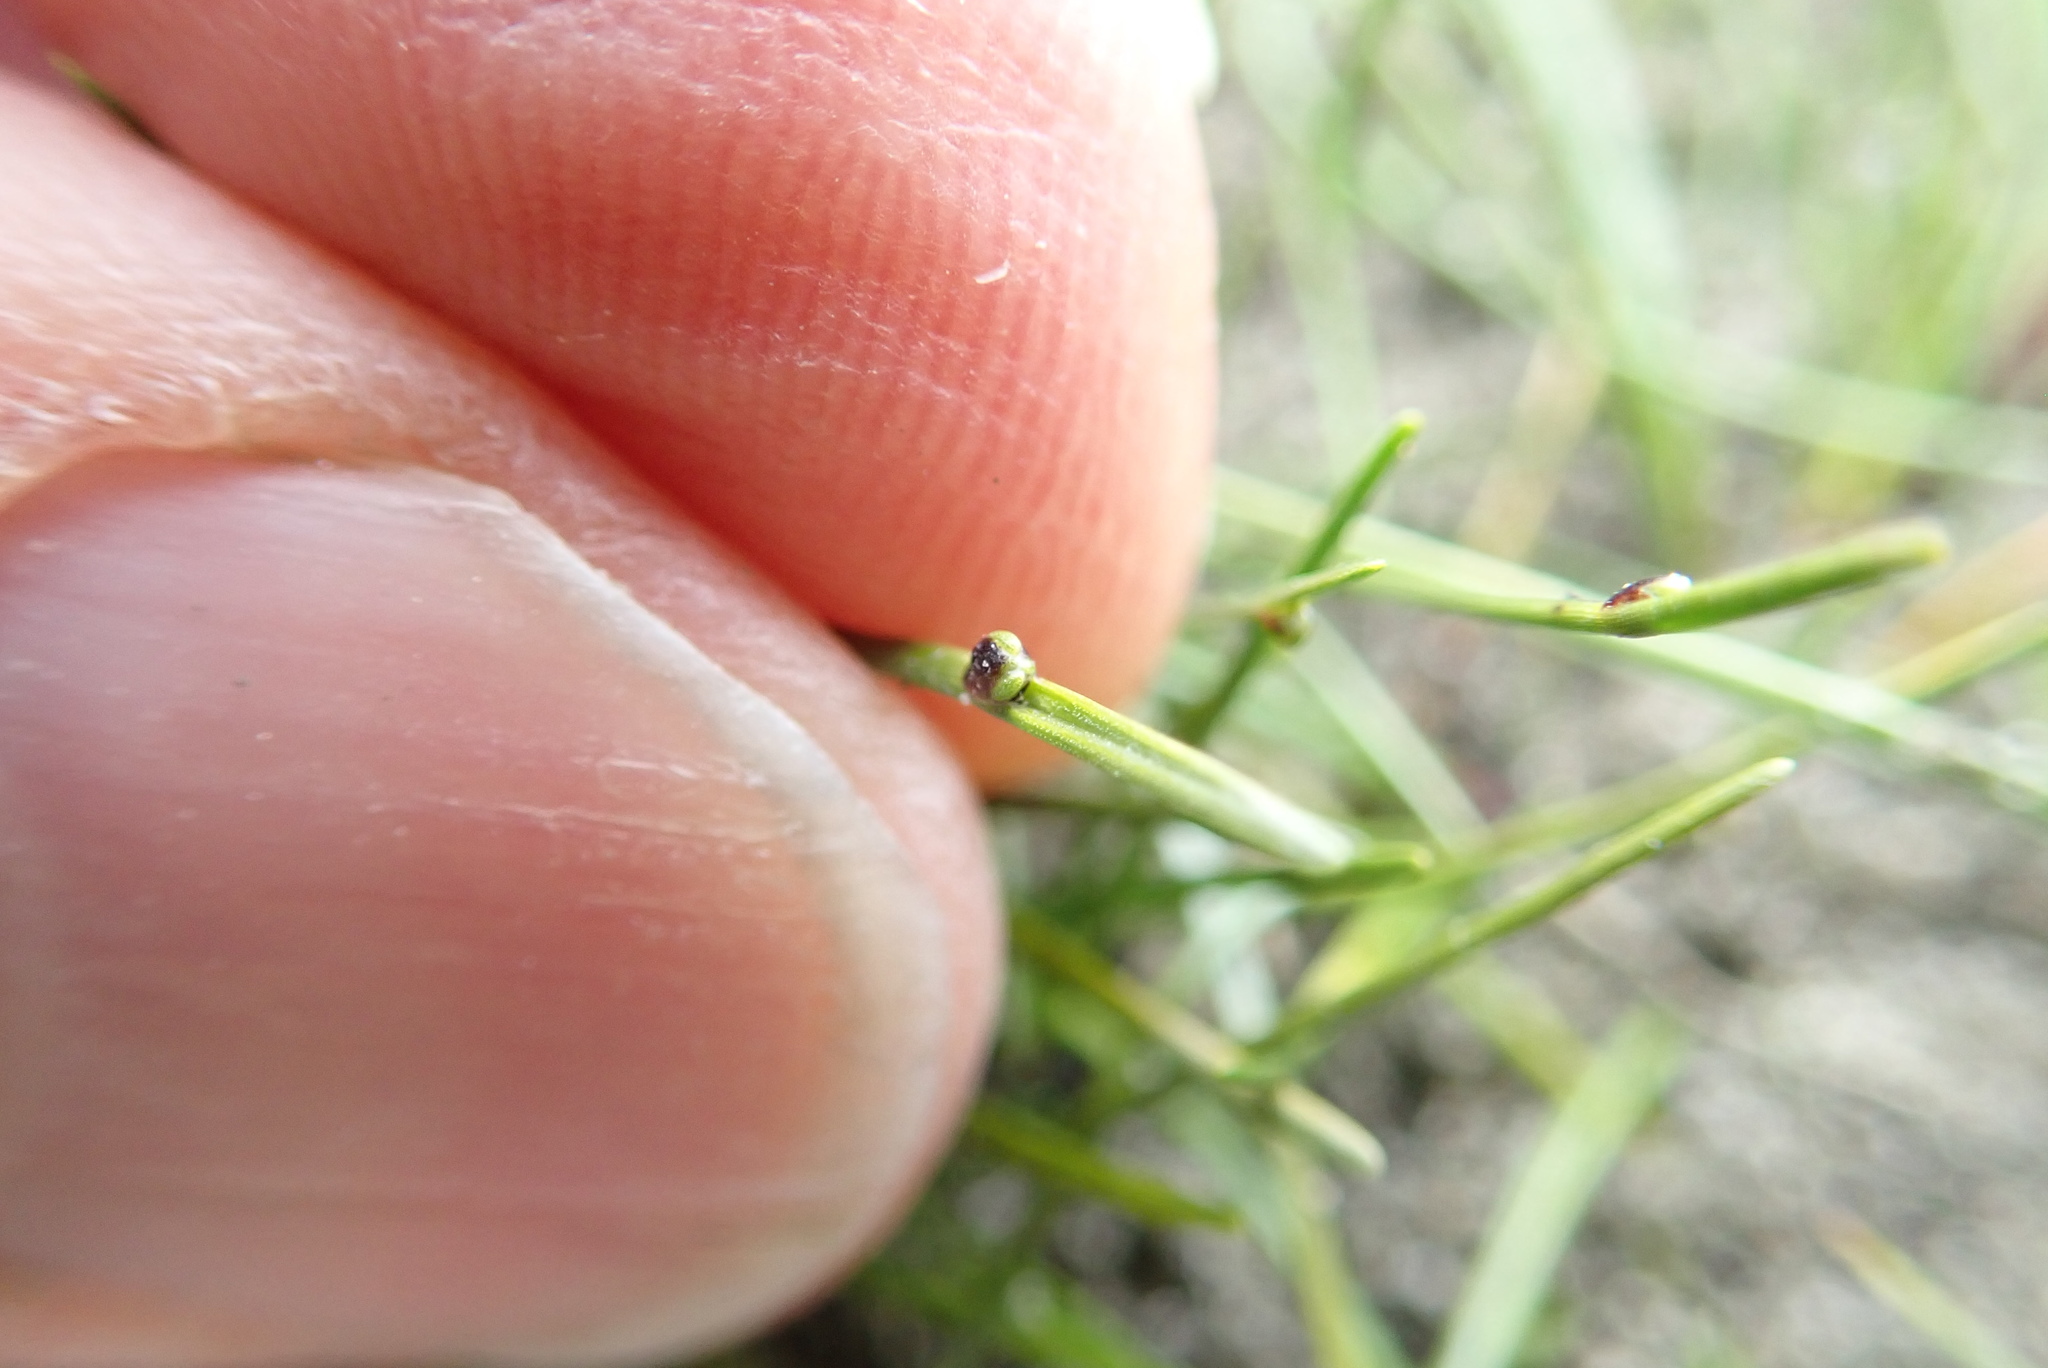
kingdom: Plantae
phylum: Tracheophyta
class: Liliopsida
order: Poales
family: Cyperaceae
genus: Isolepis
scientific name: Isolepis cernua
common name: Slender club-rush
